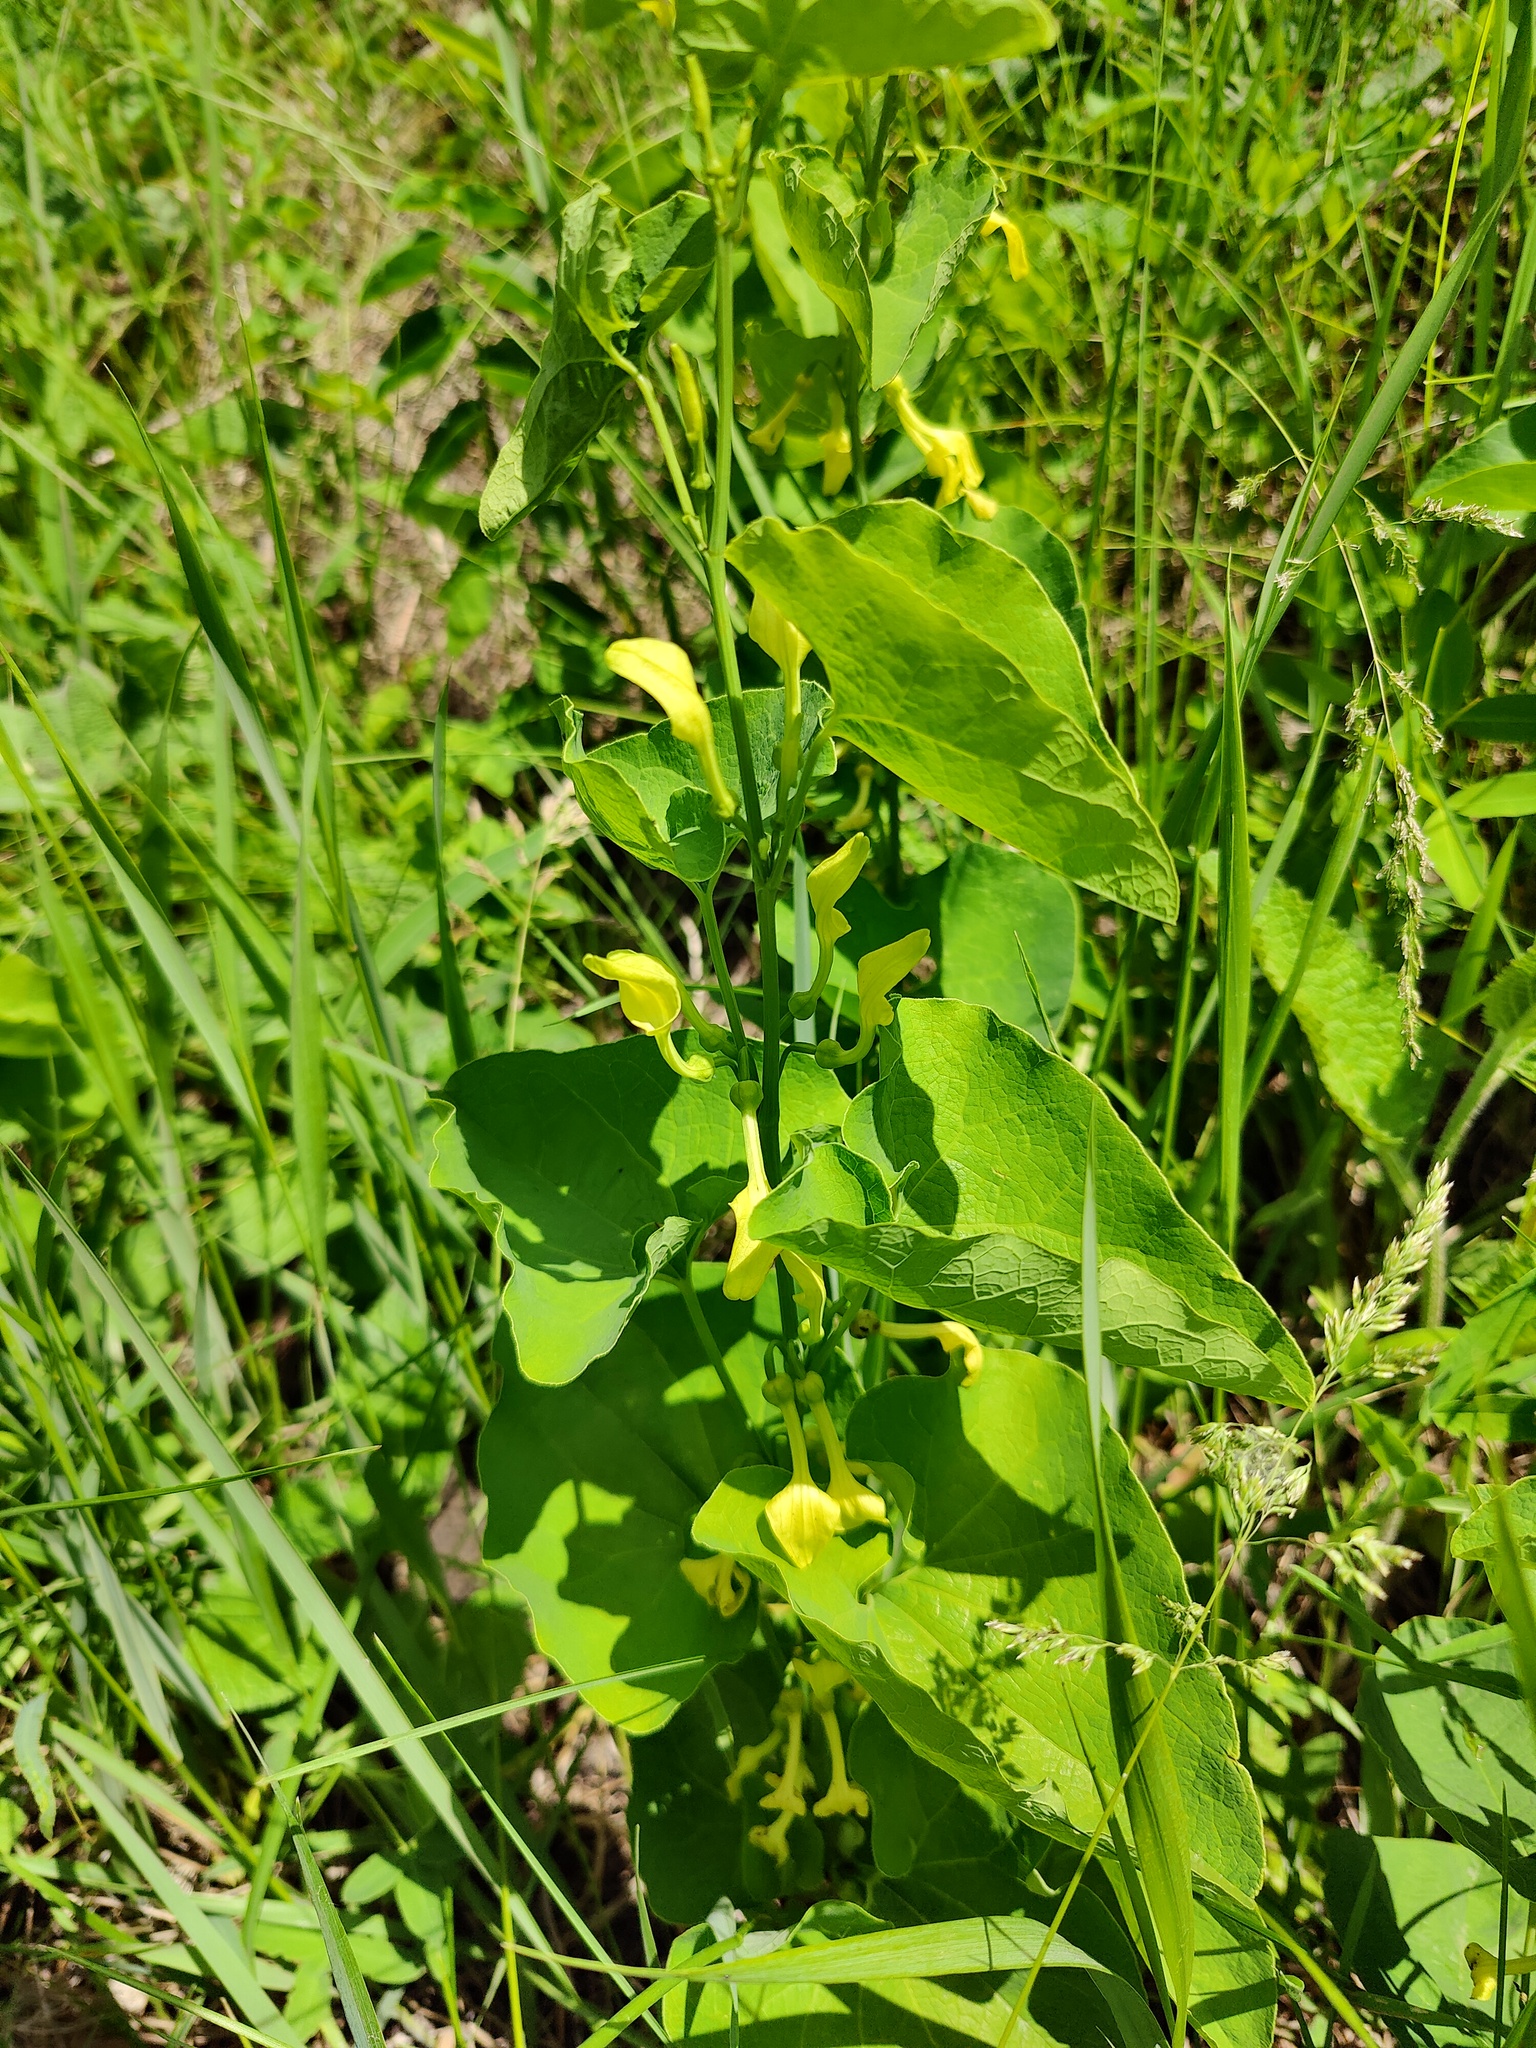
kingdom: Plantae
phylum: Tracheophyta
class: Magnoliopsida
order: Piperales
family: Aristolochiaceae
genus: Aristolochia
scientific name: Aristolochia clematitis
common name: Birthwort
